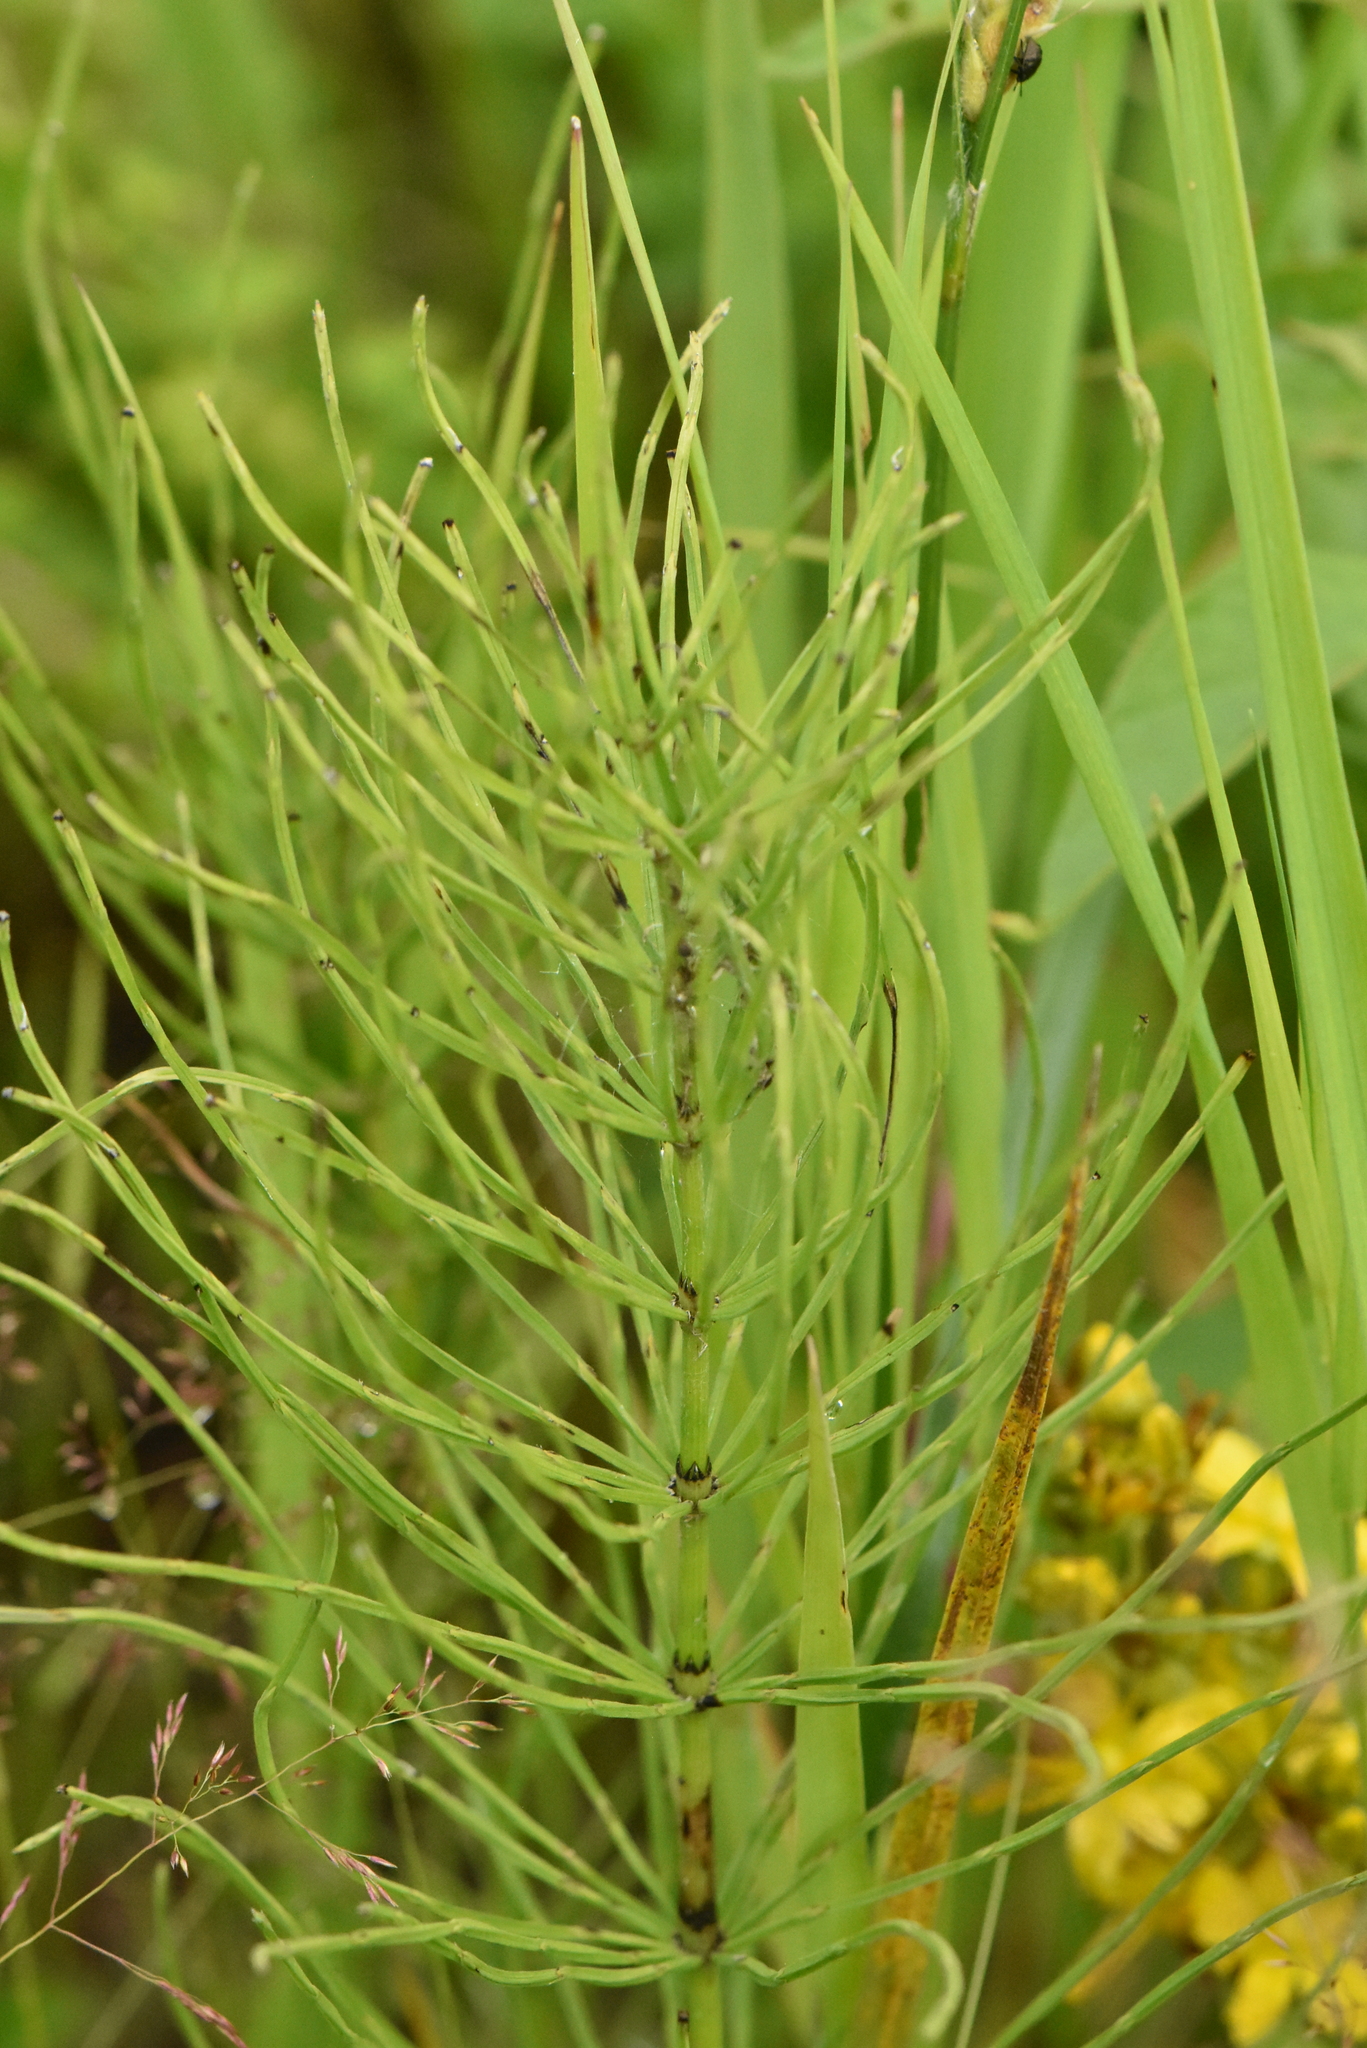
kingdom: Plantae
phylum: Tracheophyta
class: Polypodiopsida
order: Equisetales
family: Equisetaceae
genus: Equisetum
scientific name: Equisetum arvense
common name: Field horsetail
